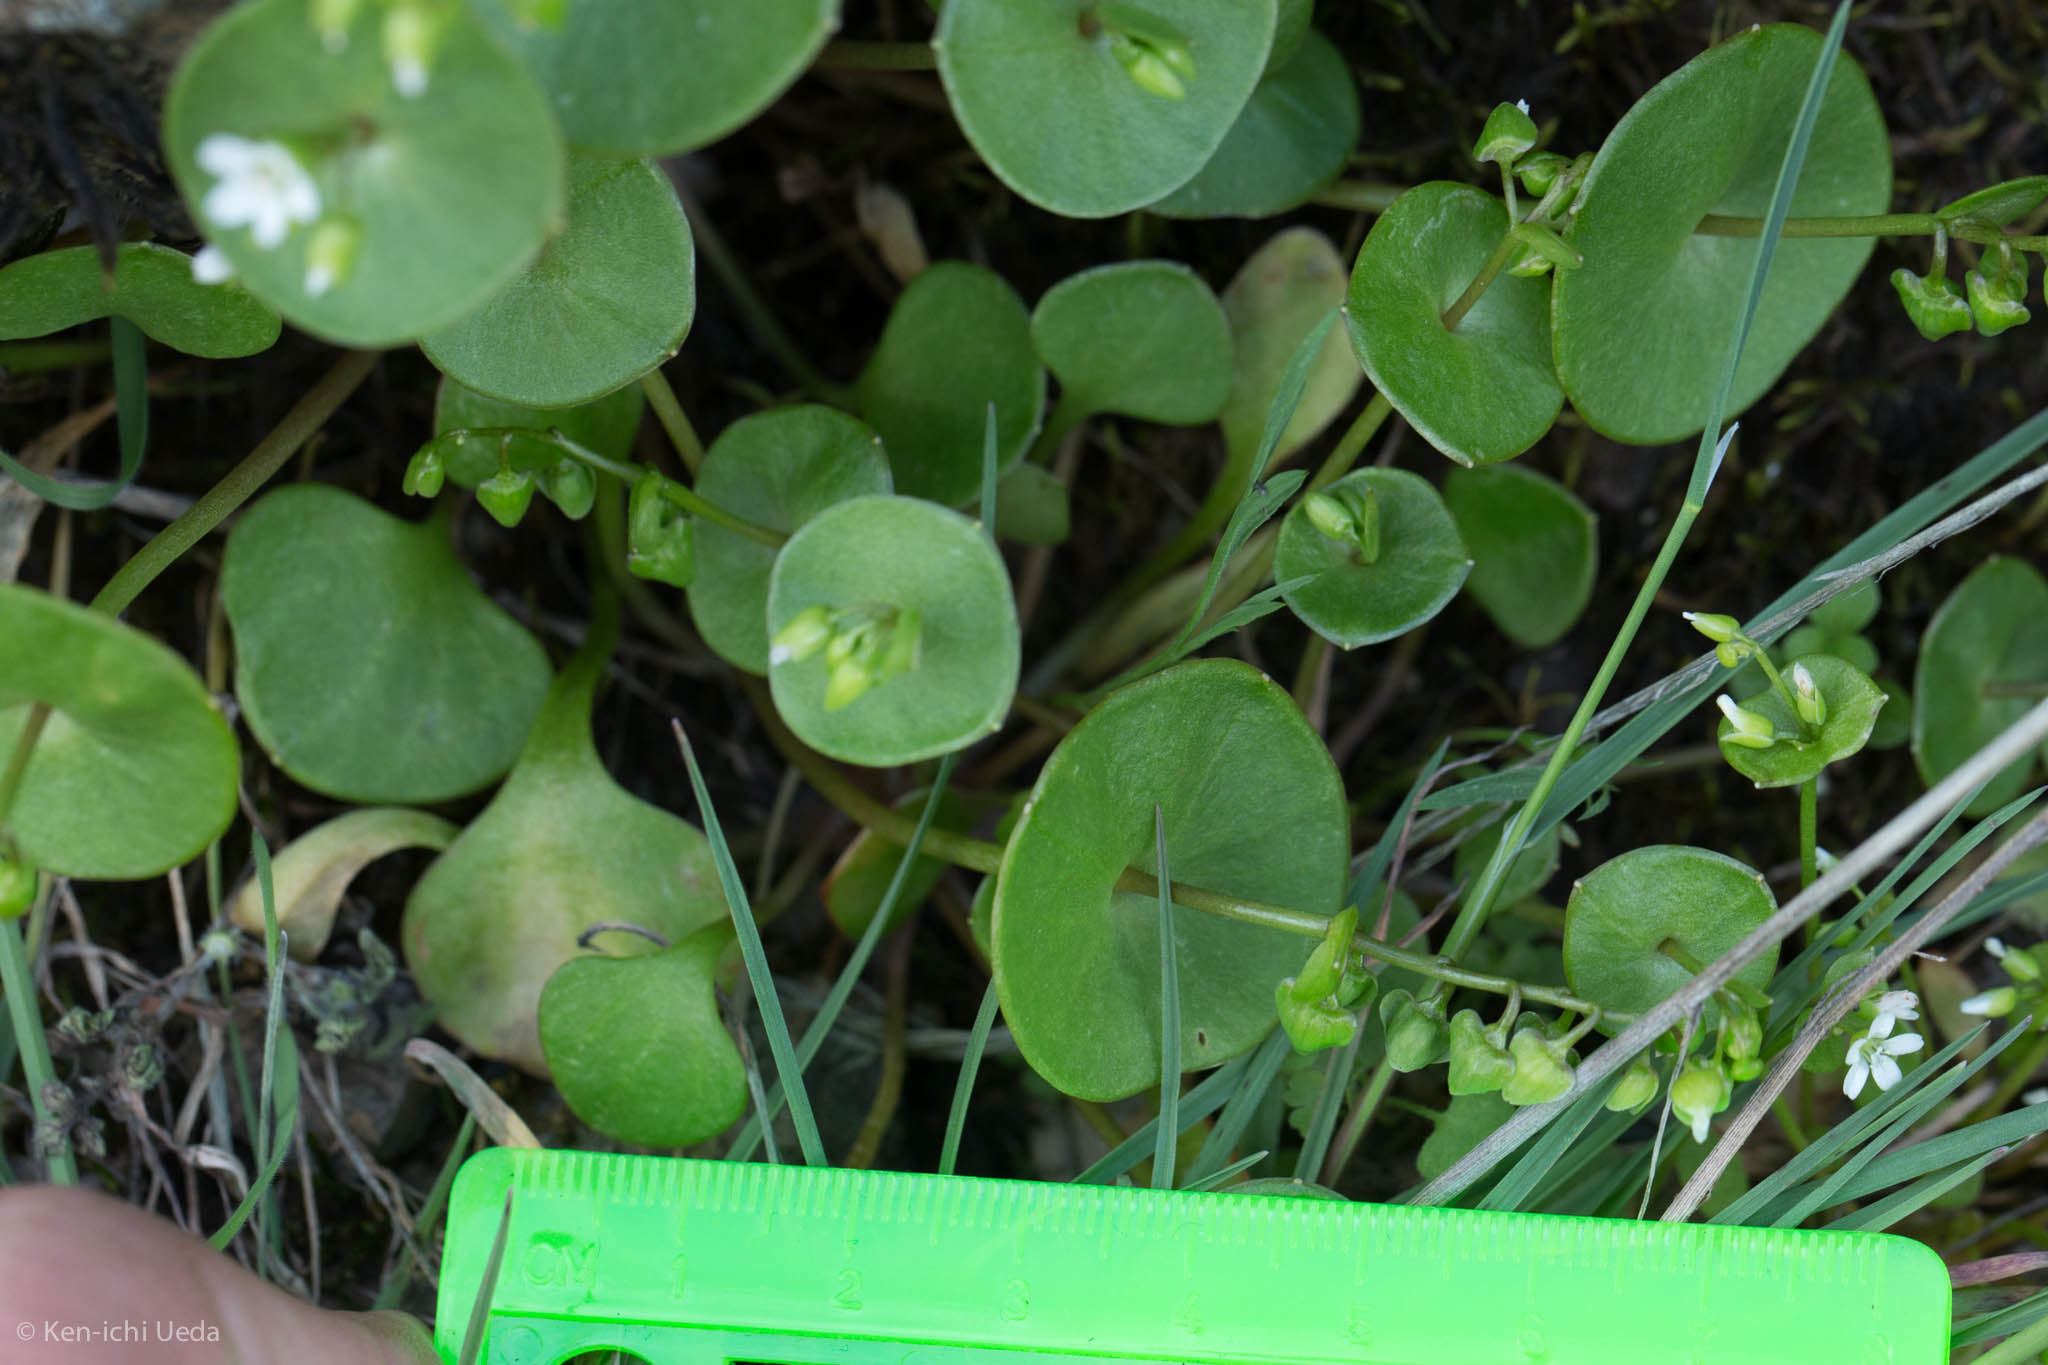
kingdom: Plantae
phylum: Tracheophyta
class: Magnoliopsida
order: Caryophyllales
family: Montiaceae
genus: Claytonia
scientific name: Claytonia perfoliata
